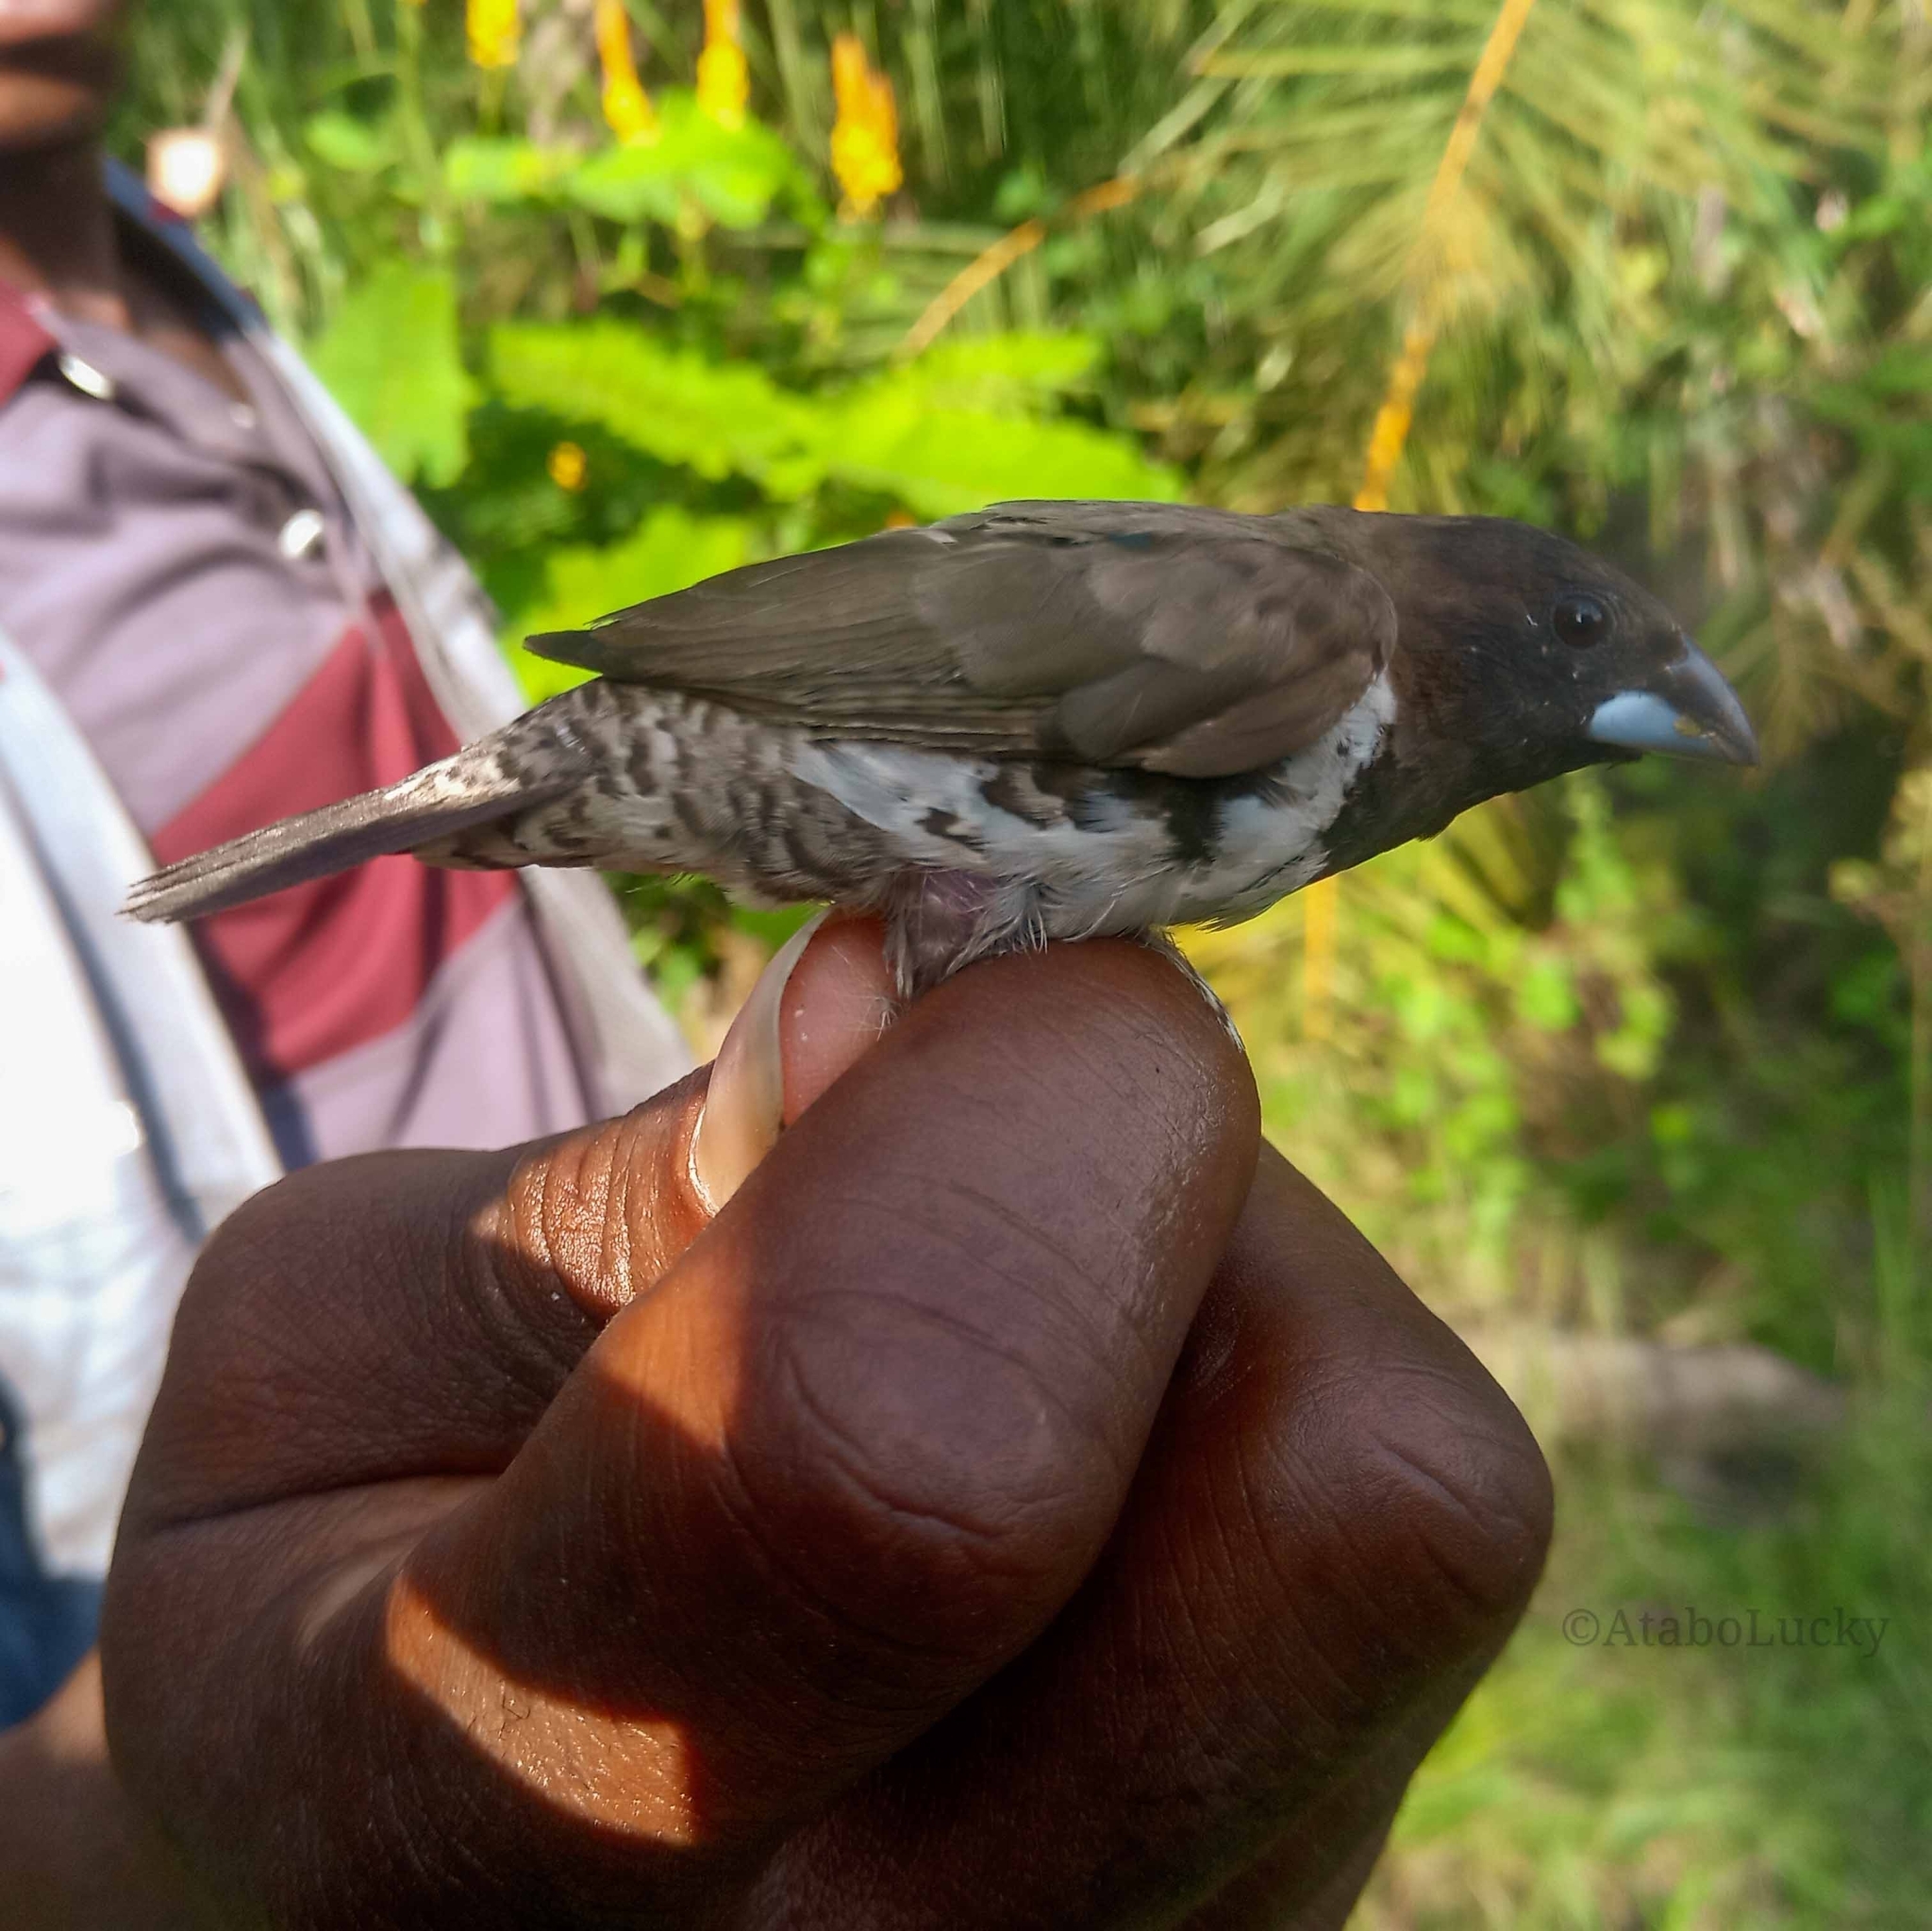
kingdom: Animalia
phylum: Chordata
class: Aves
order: Passeriformes
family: Estrildidae
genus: Lonchura
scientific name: Lonchura cucullata
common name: Bronze mannikin
